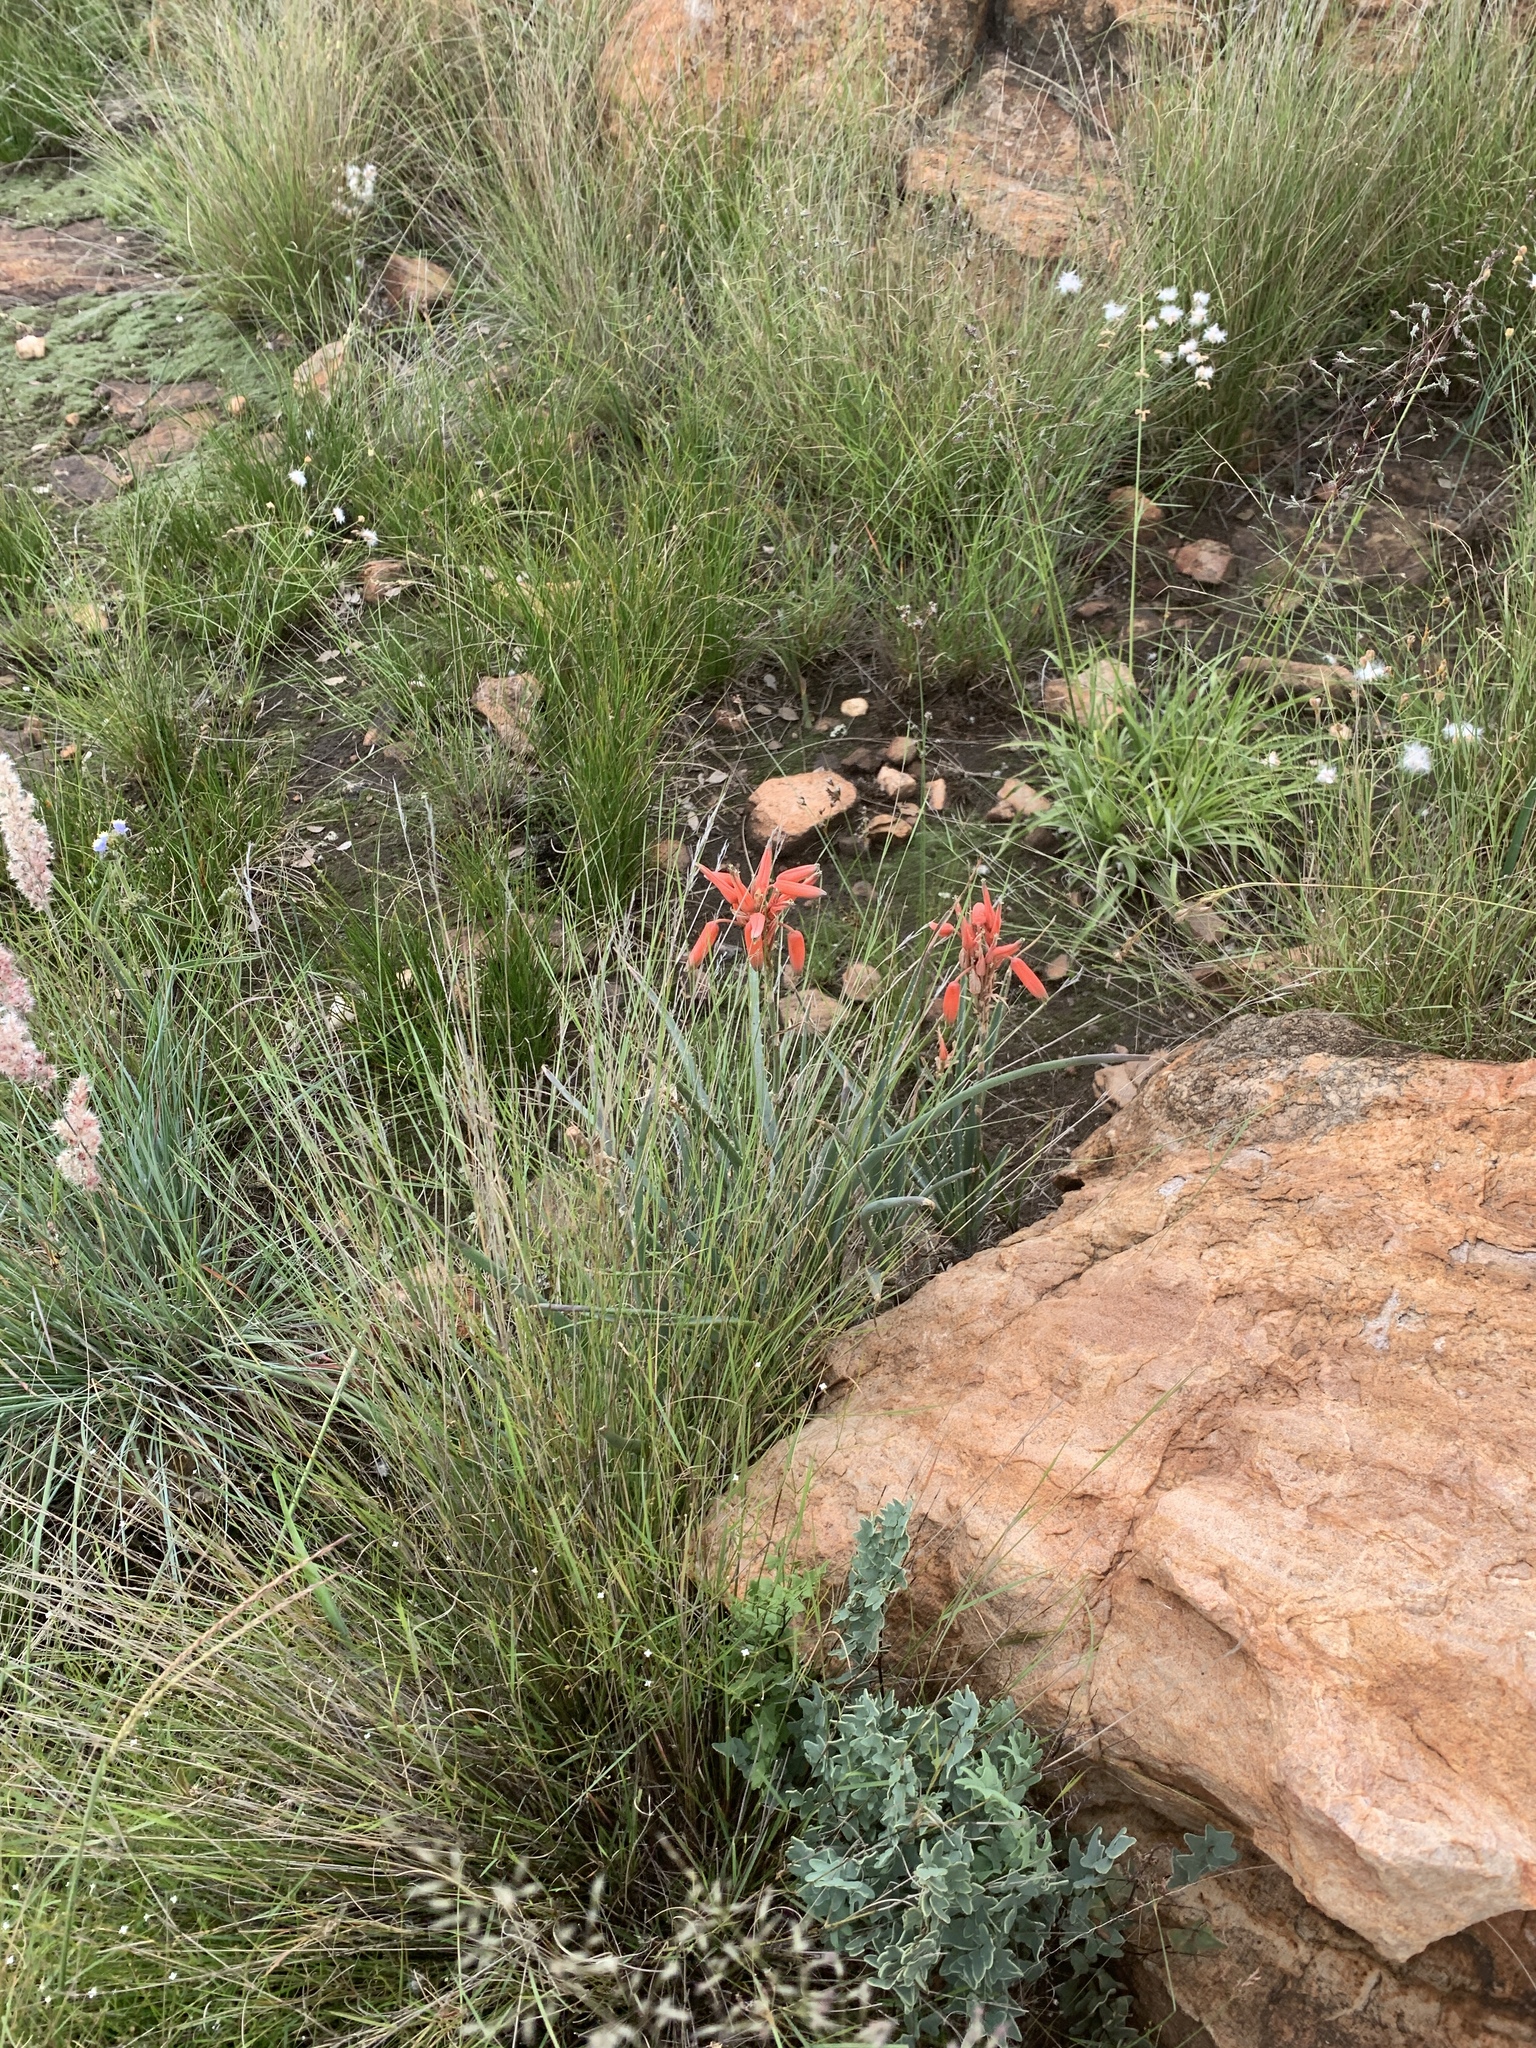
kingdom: Plantae
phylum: Tracheophyta
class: Liliopsida
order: Asparagales
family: Asphodelaceae
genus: Aloe
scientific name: Aloe verecunda
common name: Grass aloe
